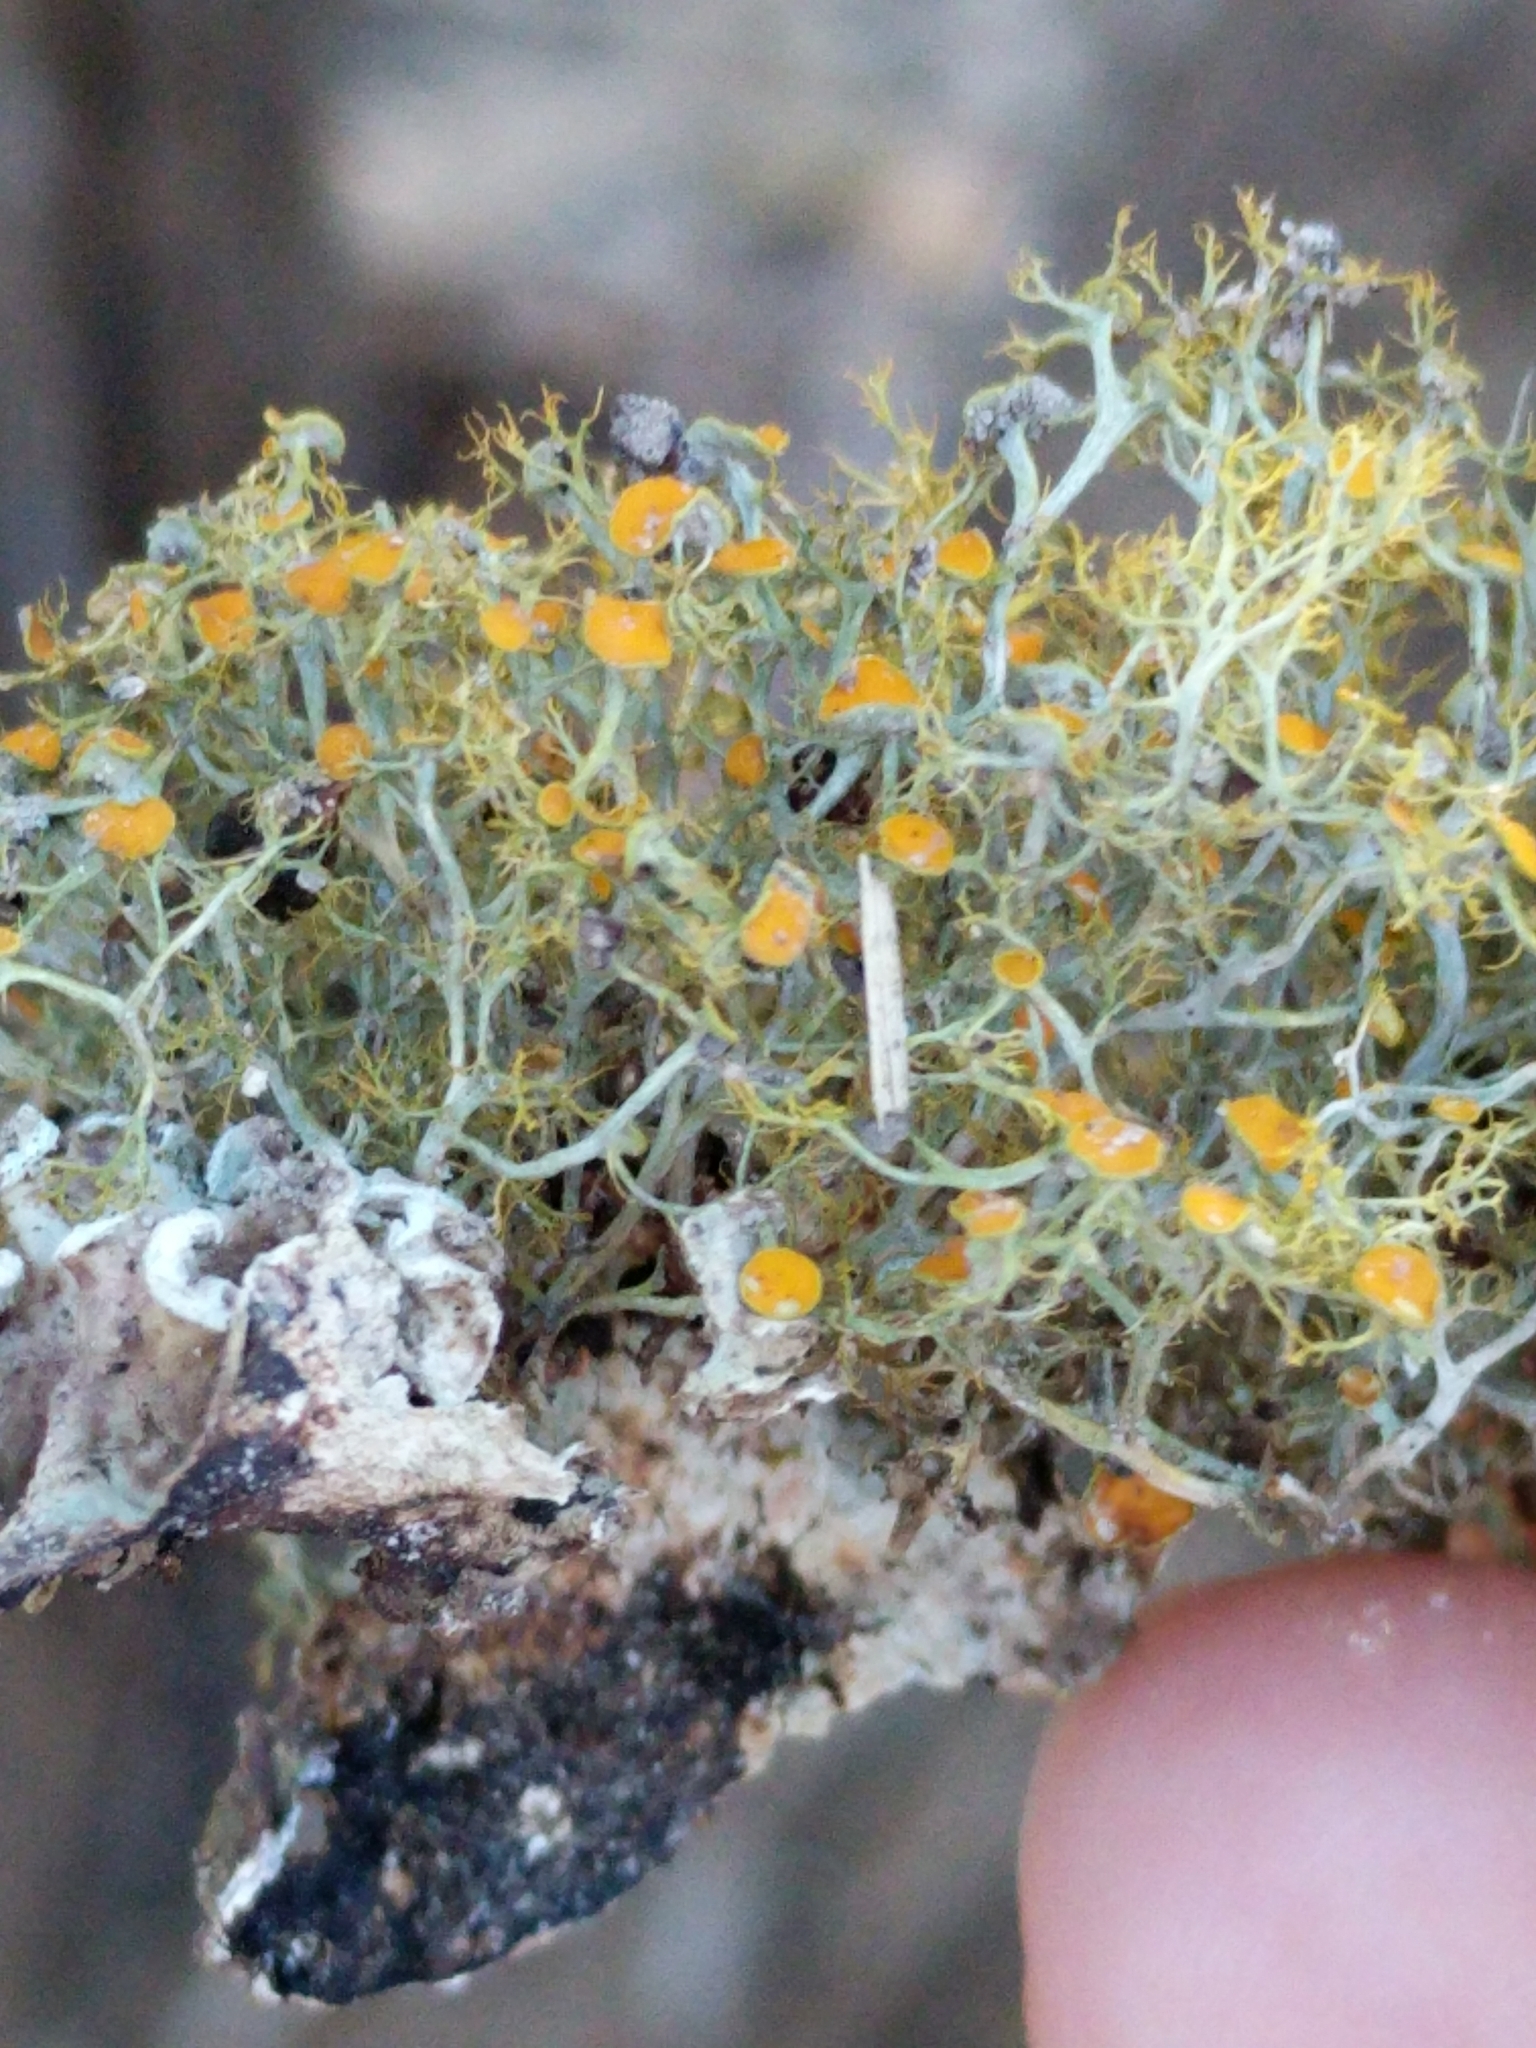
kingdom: Fungi
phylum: Ascomycota
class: Lecanoromycetes
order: Teloschistales
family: Teloschistaceae
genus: Teloschistes
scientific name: Teloschistes exilis
